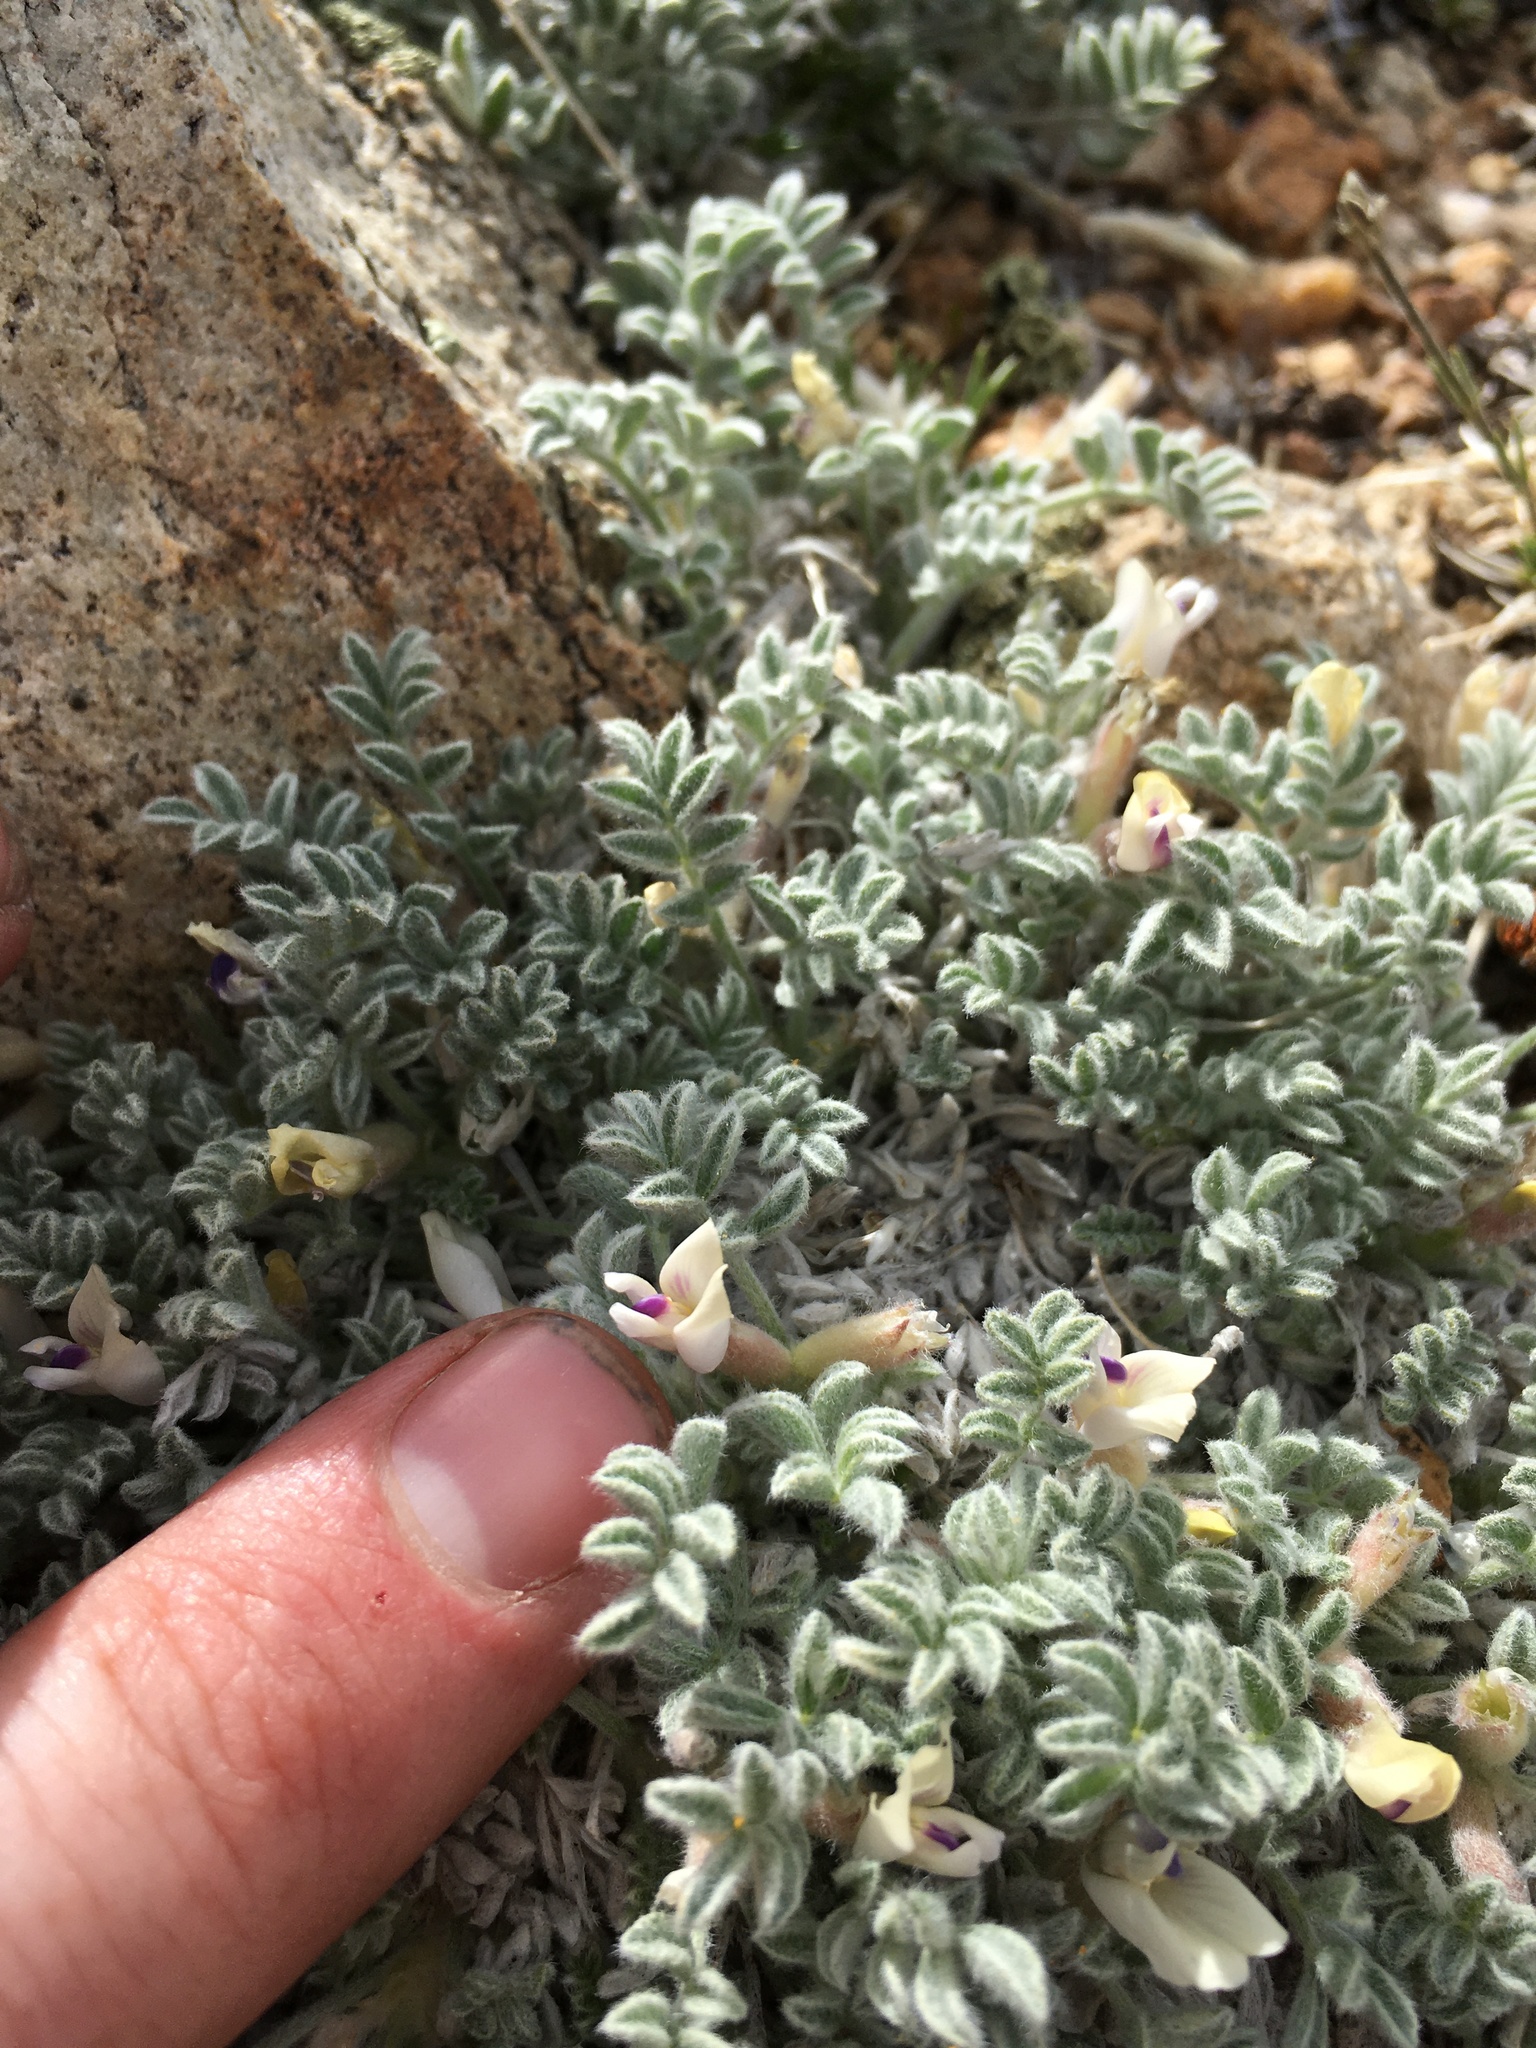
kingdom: Plantae
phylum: Tracheophyta
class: Magnoliopsida
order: Fabales
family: Fabaceae
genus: Astragalus
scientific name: Astragalus purshii
